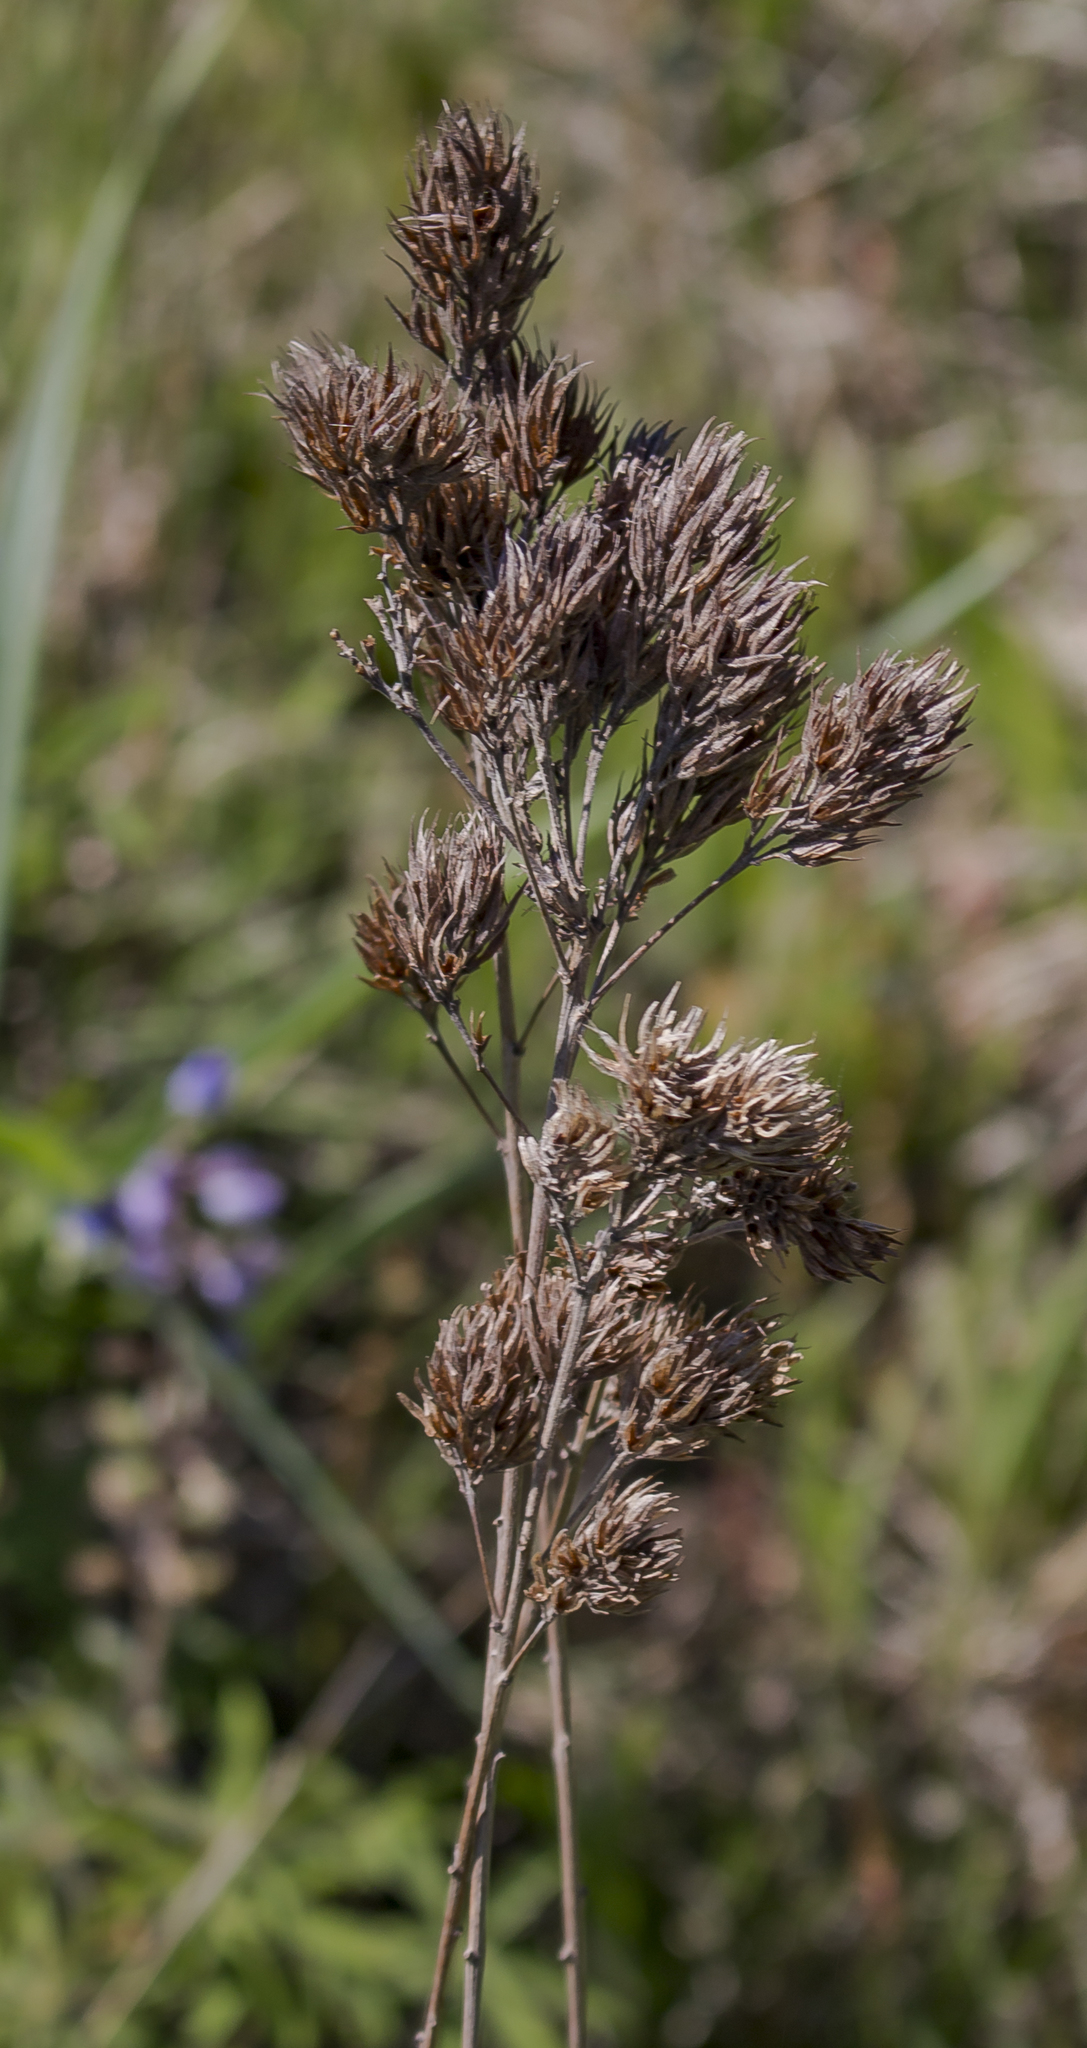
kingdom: Plantae
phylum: Tracheophyta
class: Magnoliopsida
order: Fabales
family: Fabaceae
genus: Lespedeza
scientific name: Lespedeza capitata
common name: Dusty clover
